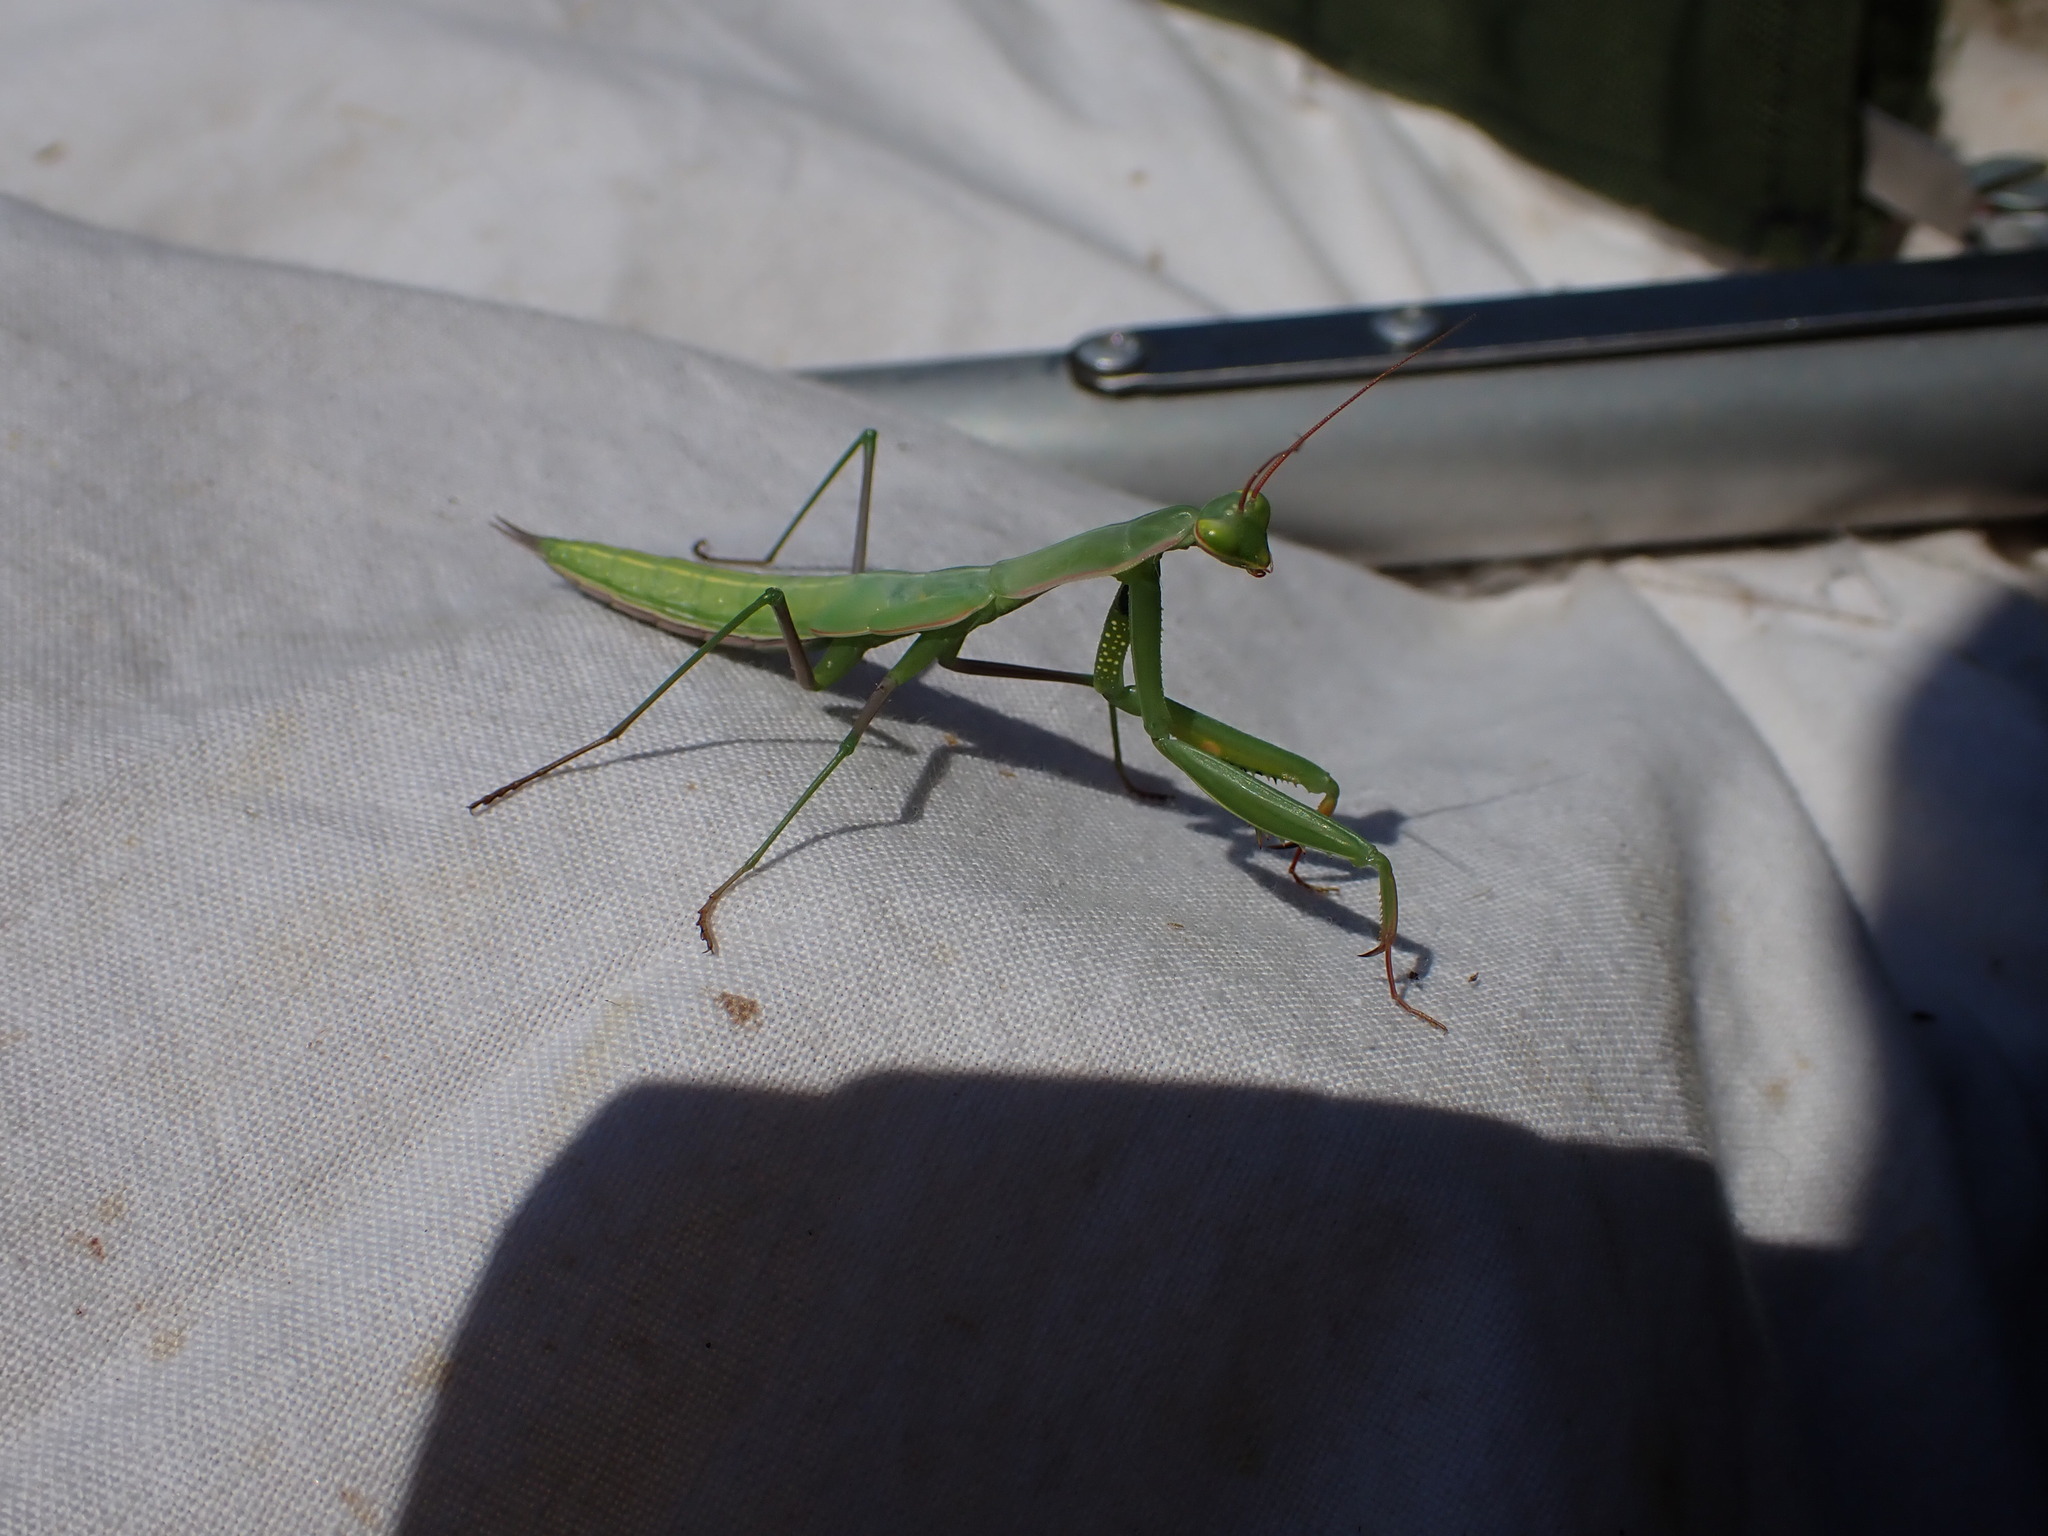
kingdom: Animalia
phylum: Arthropoda
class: Insecta
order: Mantodea
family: Mantidae
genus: Mantis
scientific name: Mantis religiosa
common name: Praying mantis
